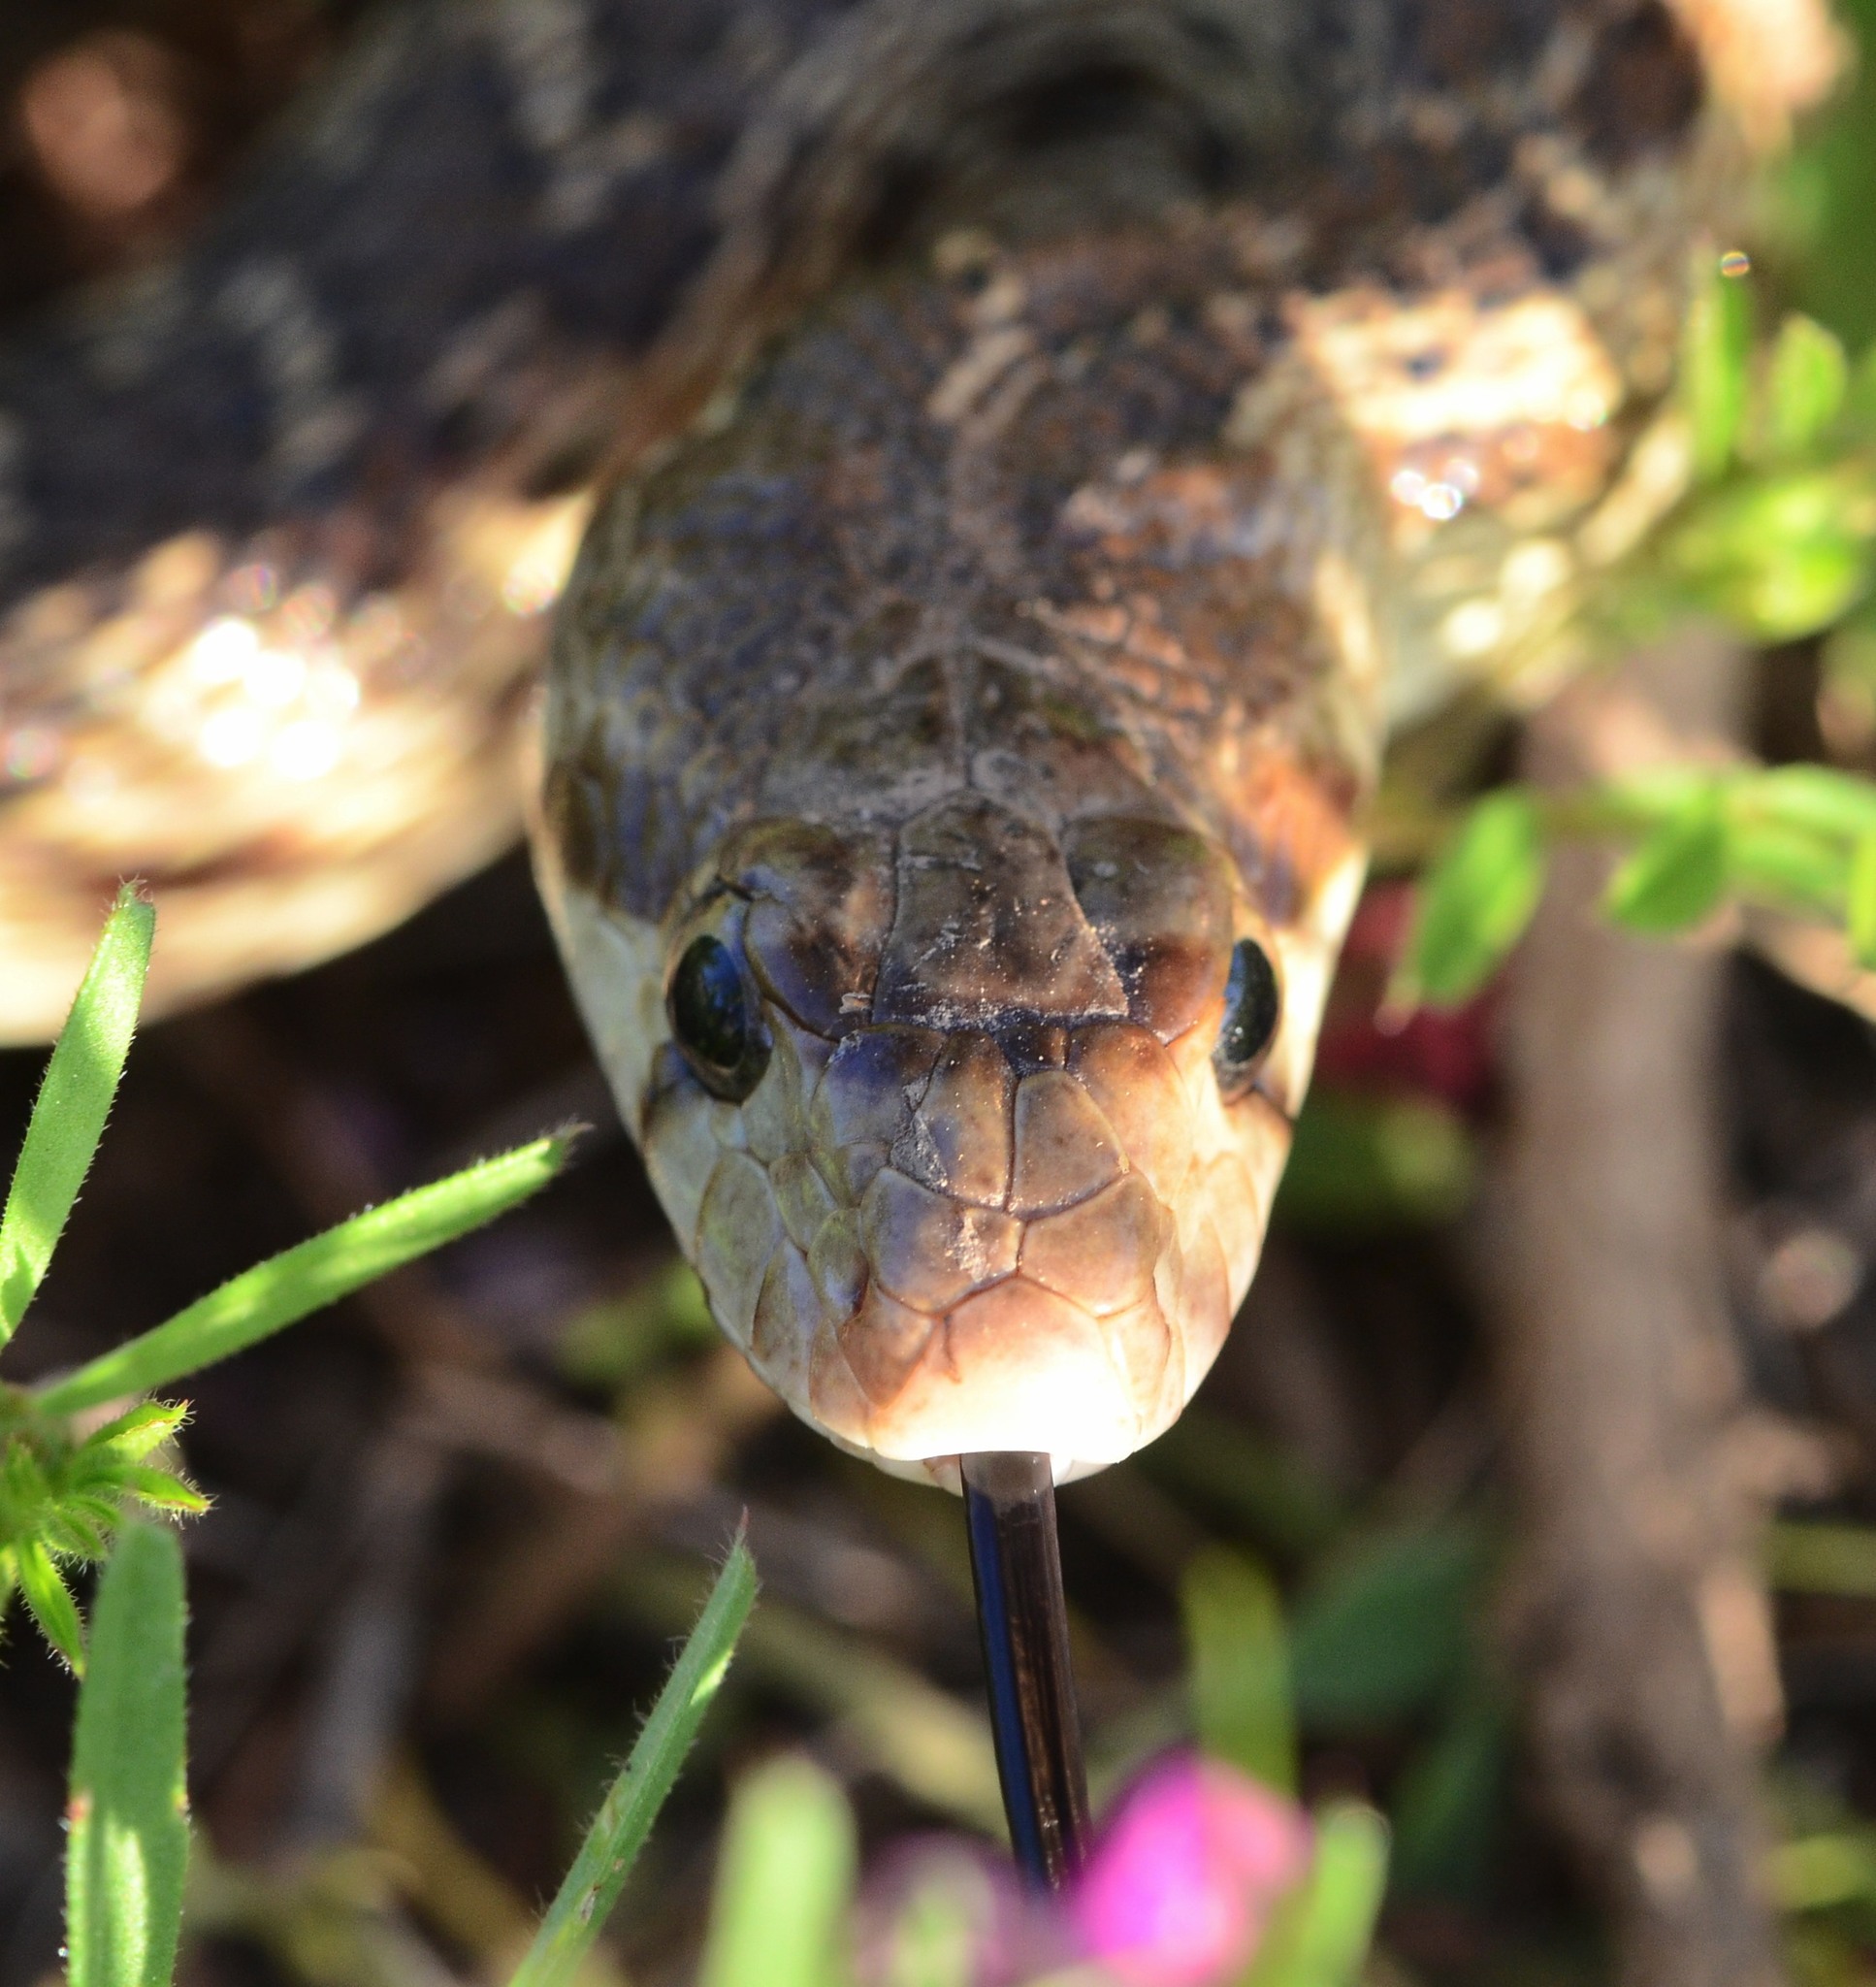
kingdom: Animalia
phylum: Chordata
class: Squamata
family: Colubridae
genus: Pituophis
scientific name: Pituophis catenifer
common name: Gopher snake
